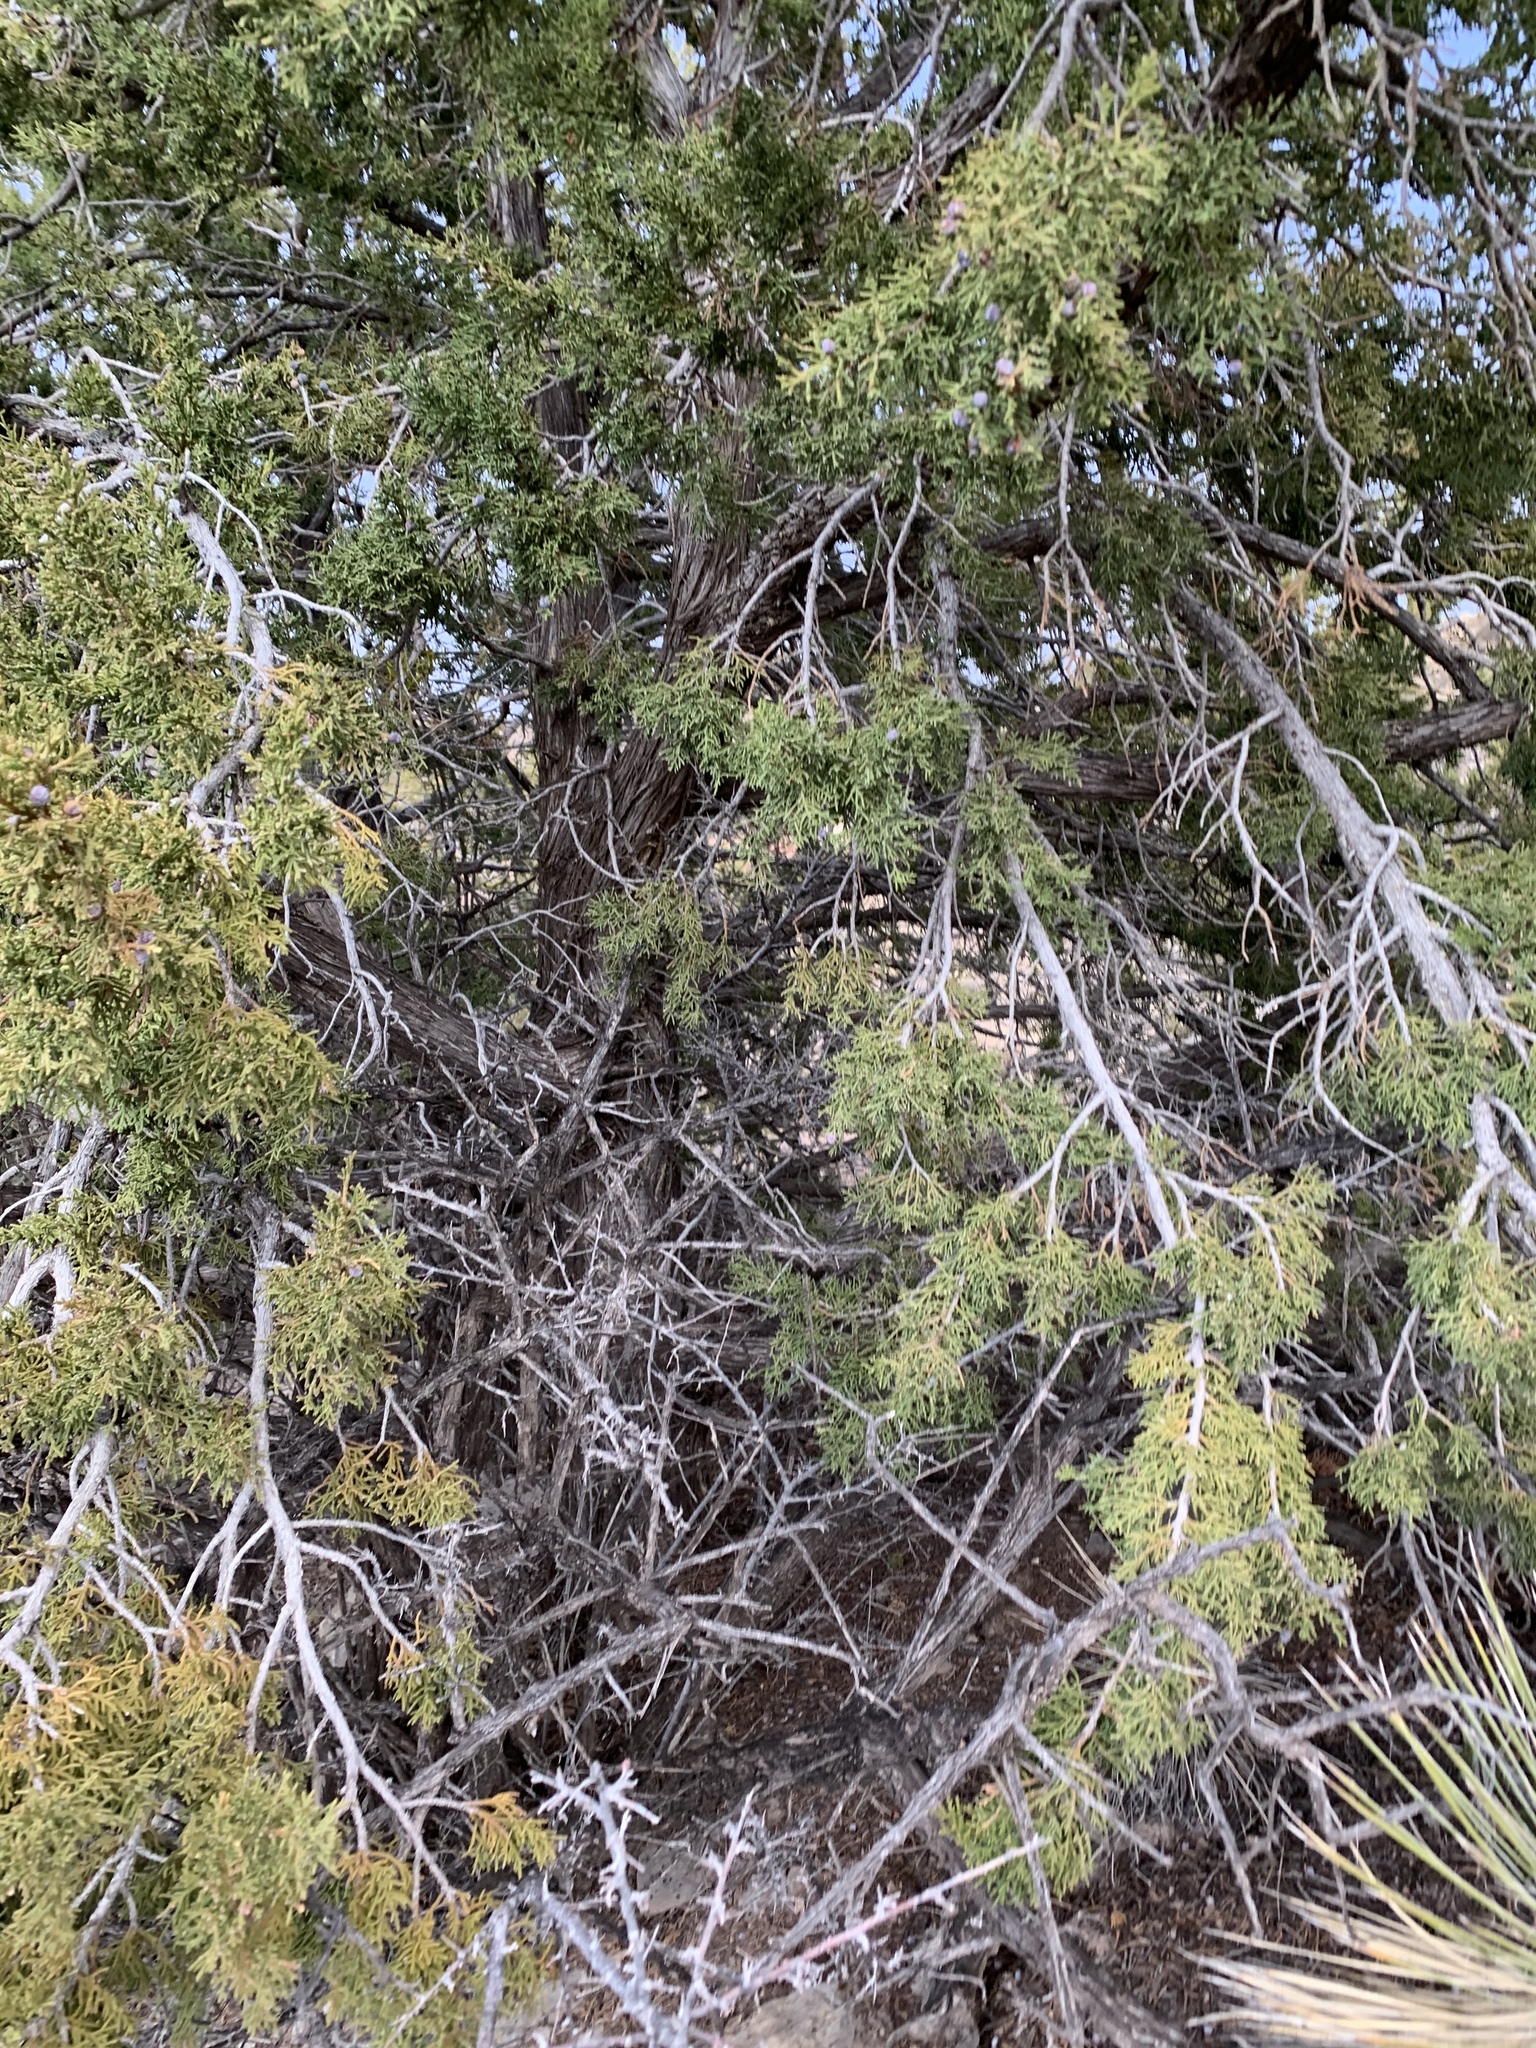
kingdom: Plantae
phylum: Tracheophyta
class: Pinopsida
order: Pinales
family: Cupressaceae
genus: Juniperus
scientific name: Juniperus monosperma
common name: One-seed juniper
